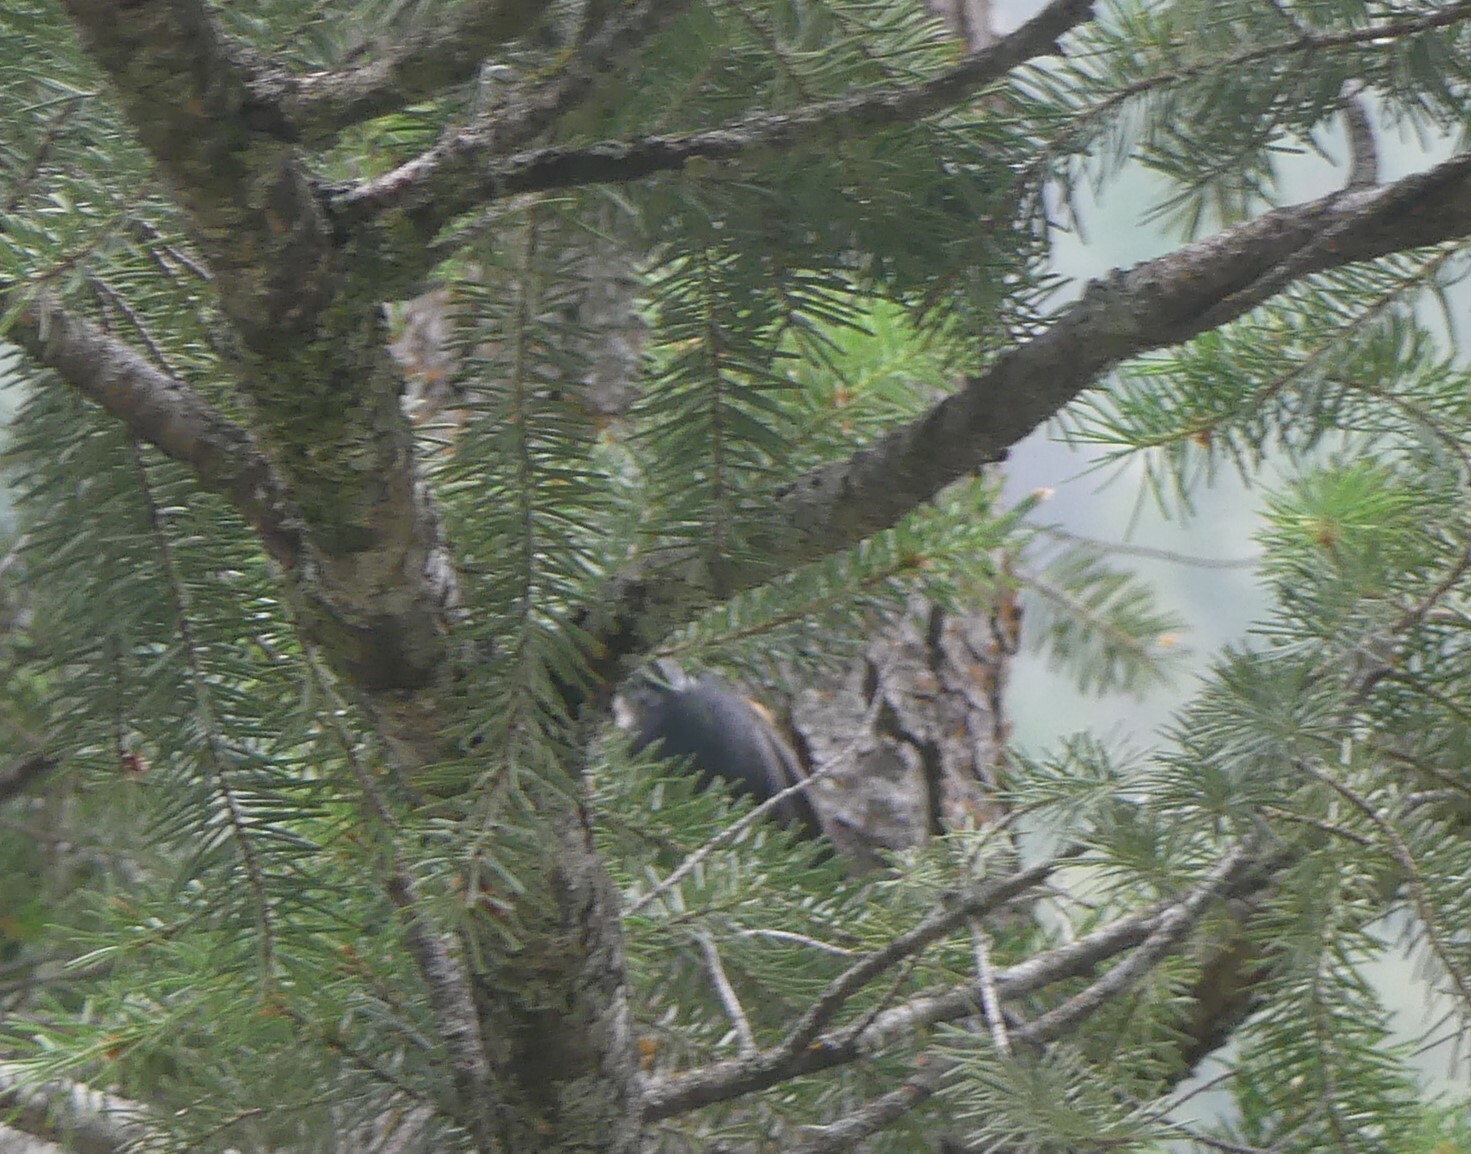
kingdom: Animalia
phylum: Chordata
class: Aves
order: Passeriformes
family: Sittidae
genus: Sitta
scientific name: Sitta canadensis
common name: Red-breasted nuthatch
